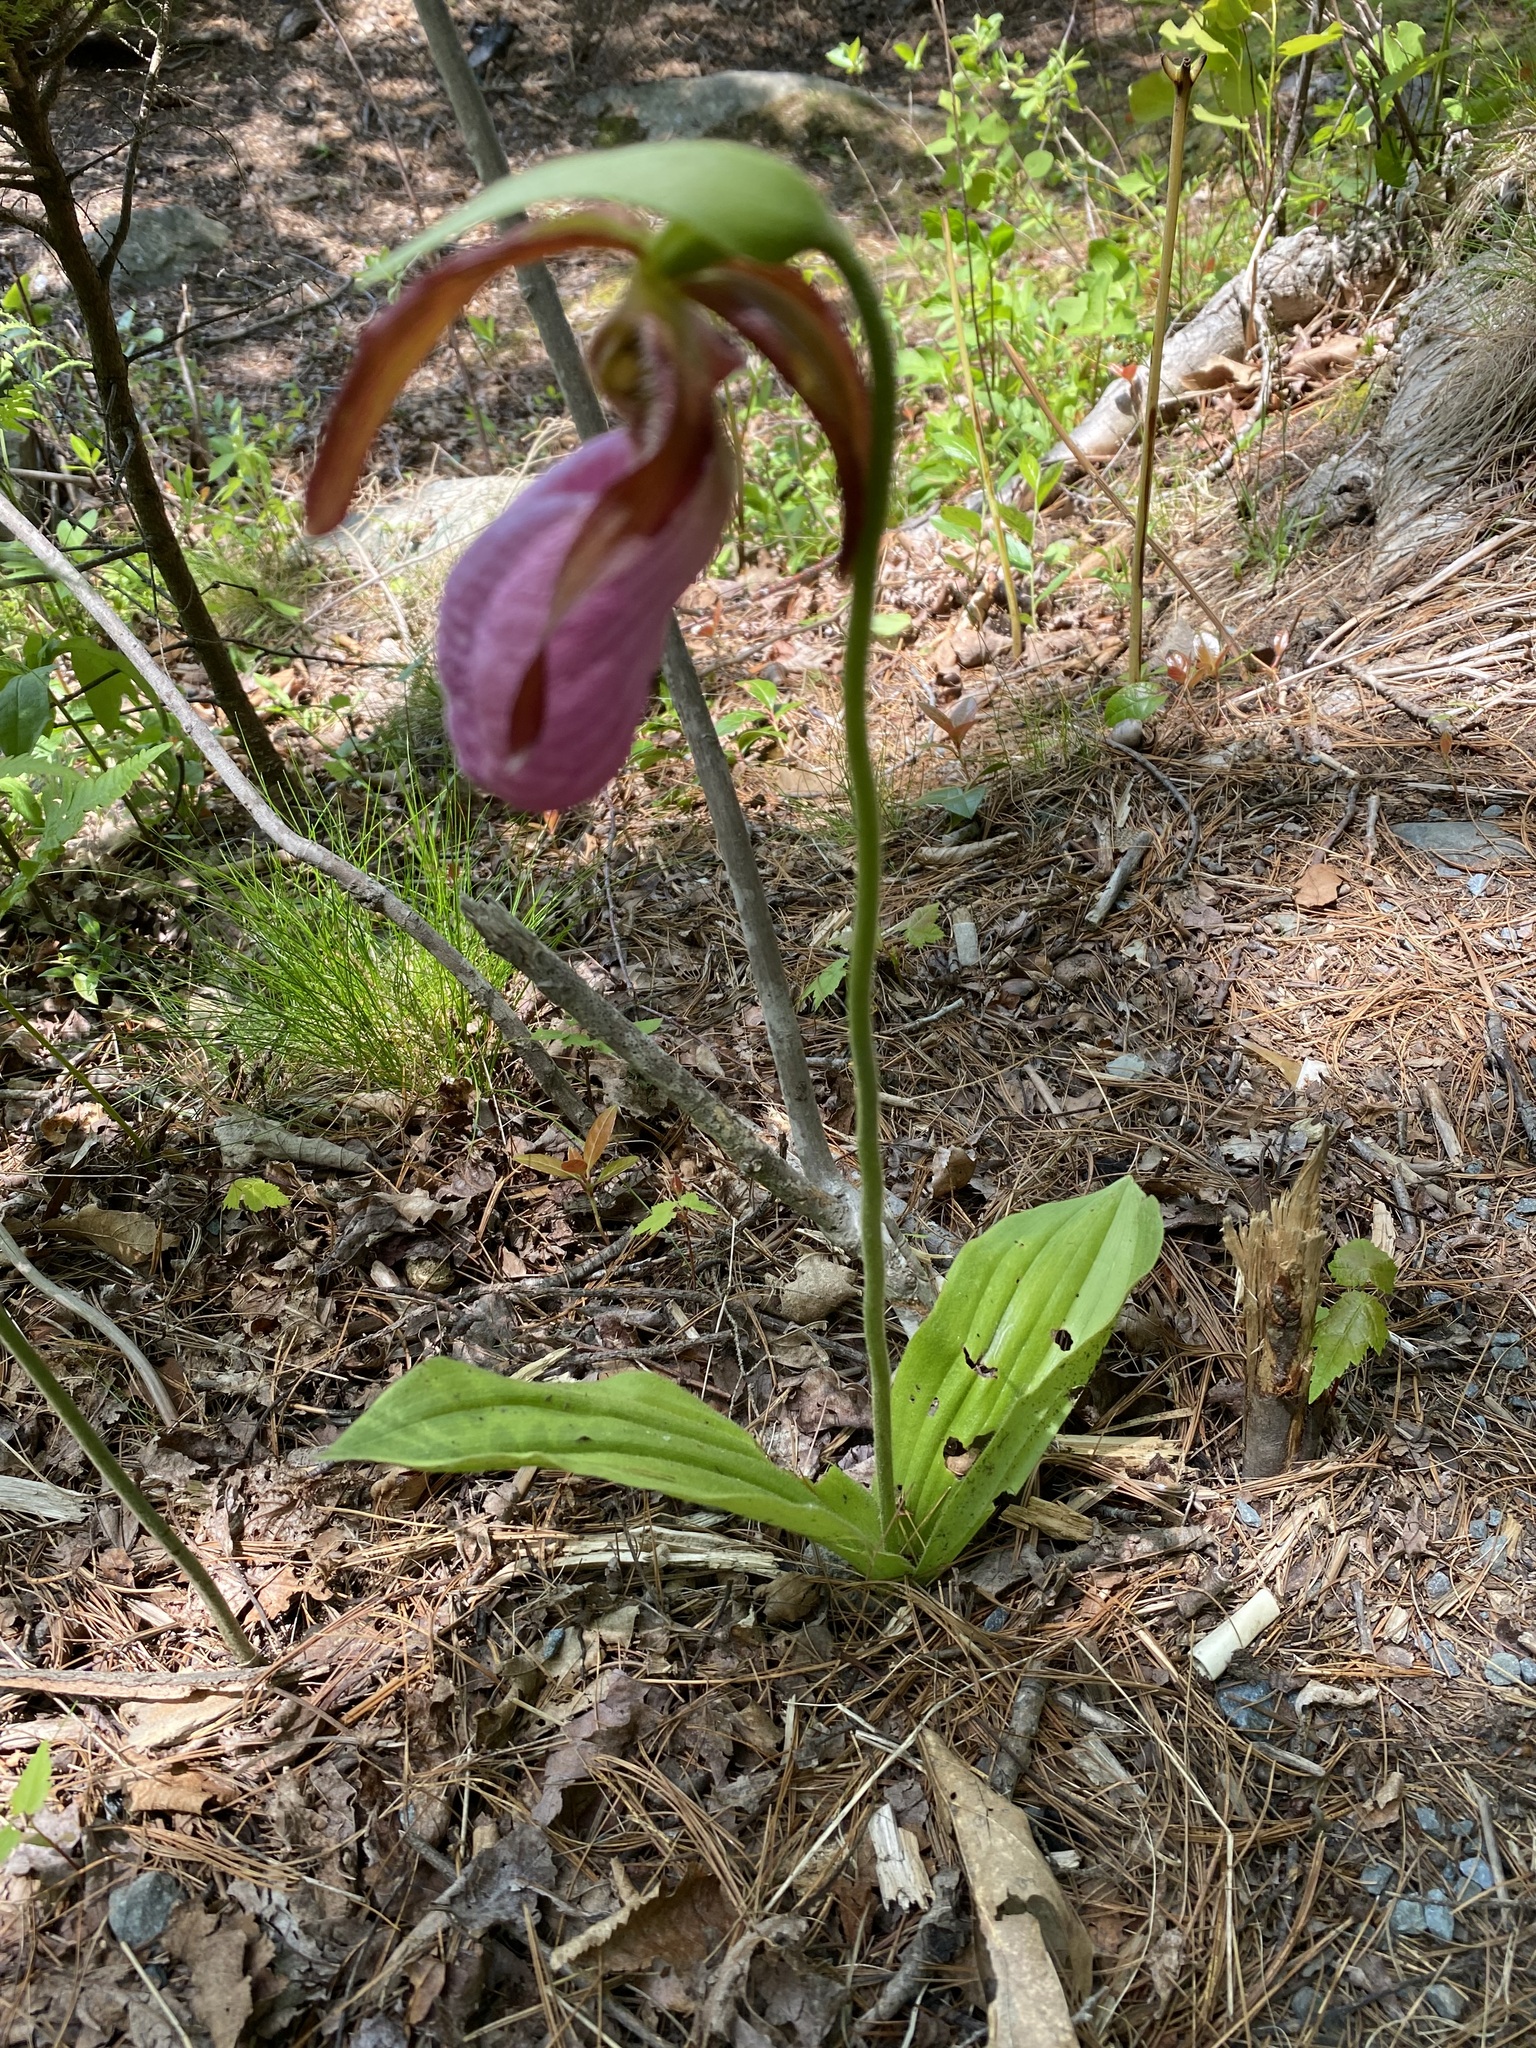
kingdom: Plantae
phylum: Tracheophyta
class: Liliopsida
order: Asparagales
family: Orchidaceae
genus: Cypripedium
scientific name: Cypripedium acaule
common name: Pink lady's-slipper
